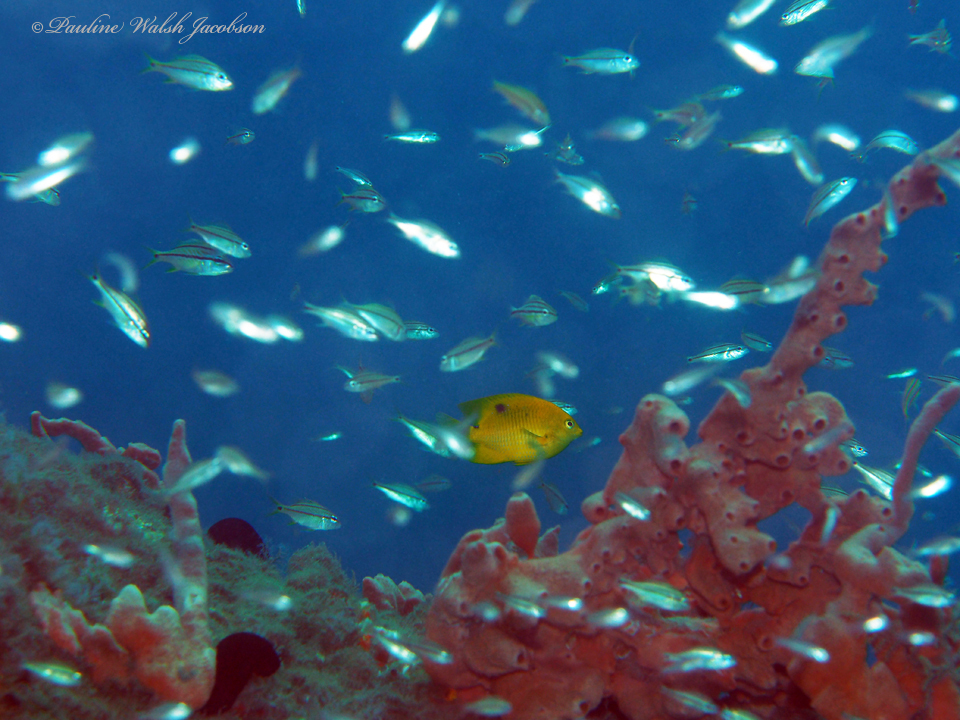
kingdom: Animalia
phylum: Chordata
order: Perciformes
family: Pomacentridae
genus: Stegastes
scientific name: Stegastes planifrons
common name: Threespot damselfish
